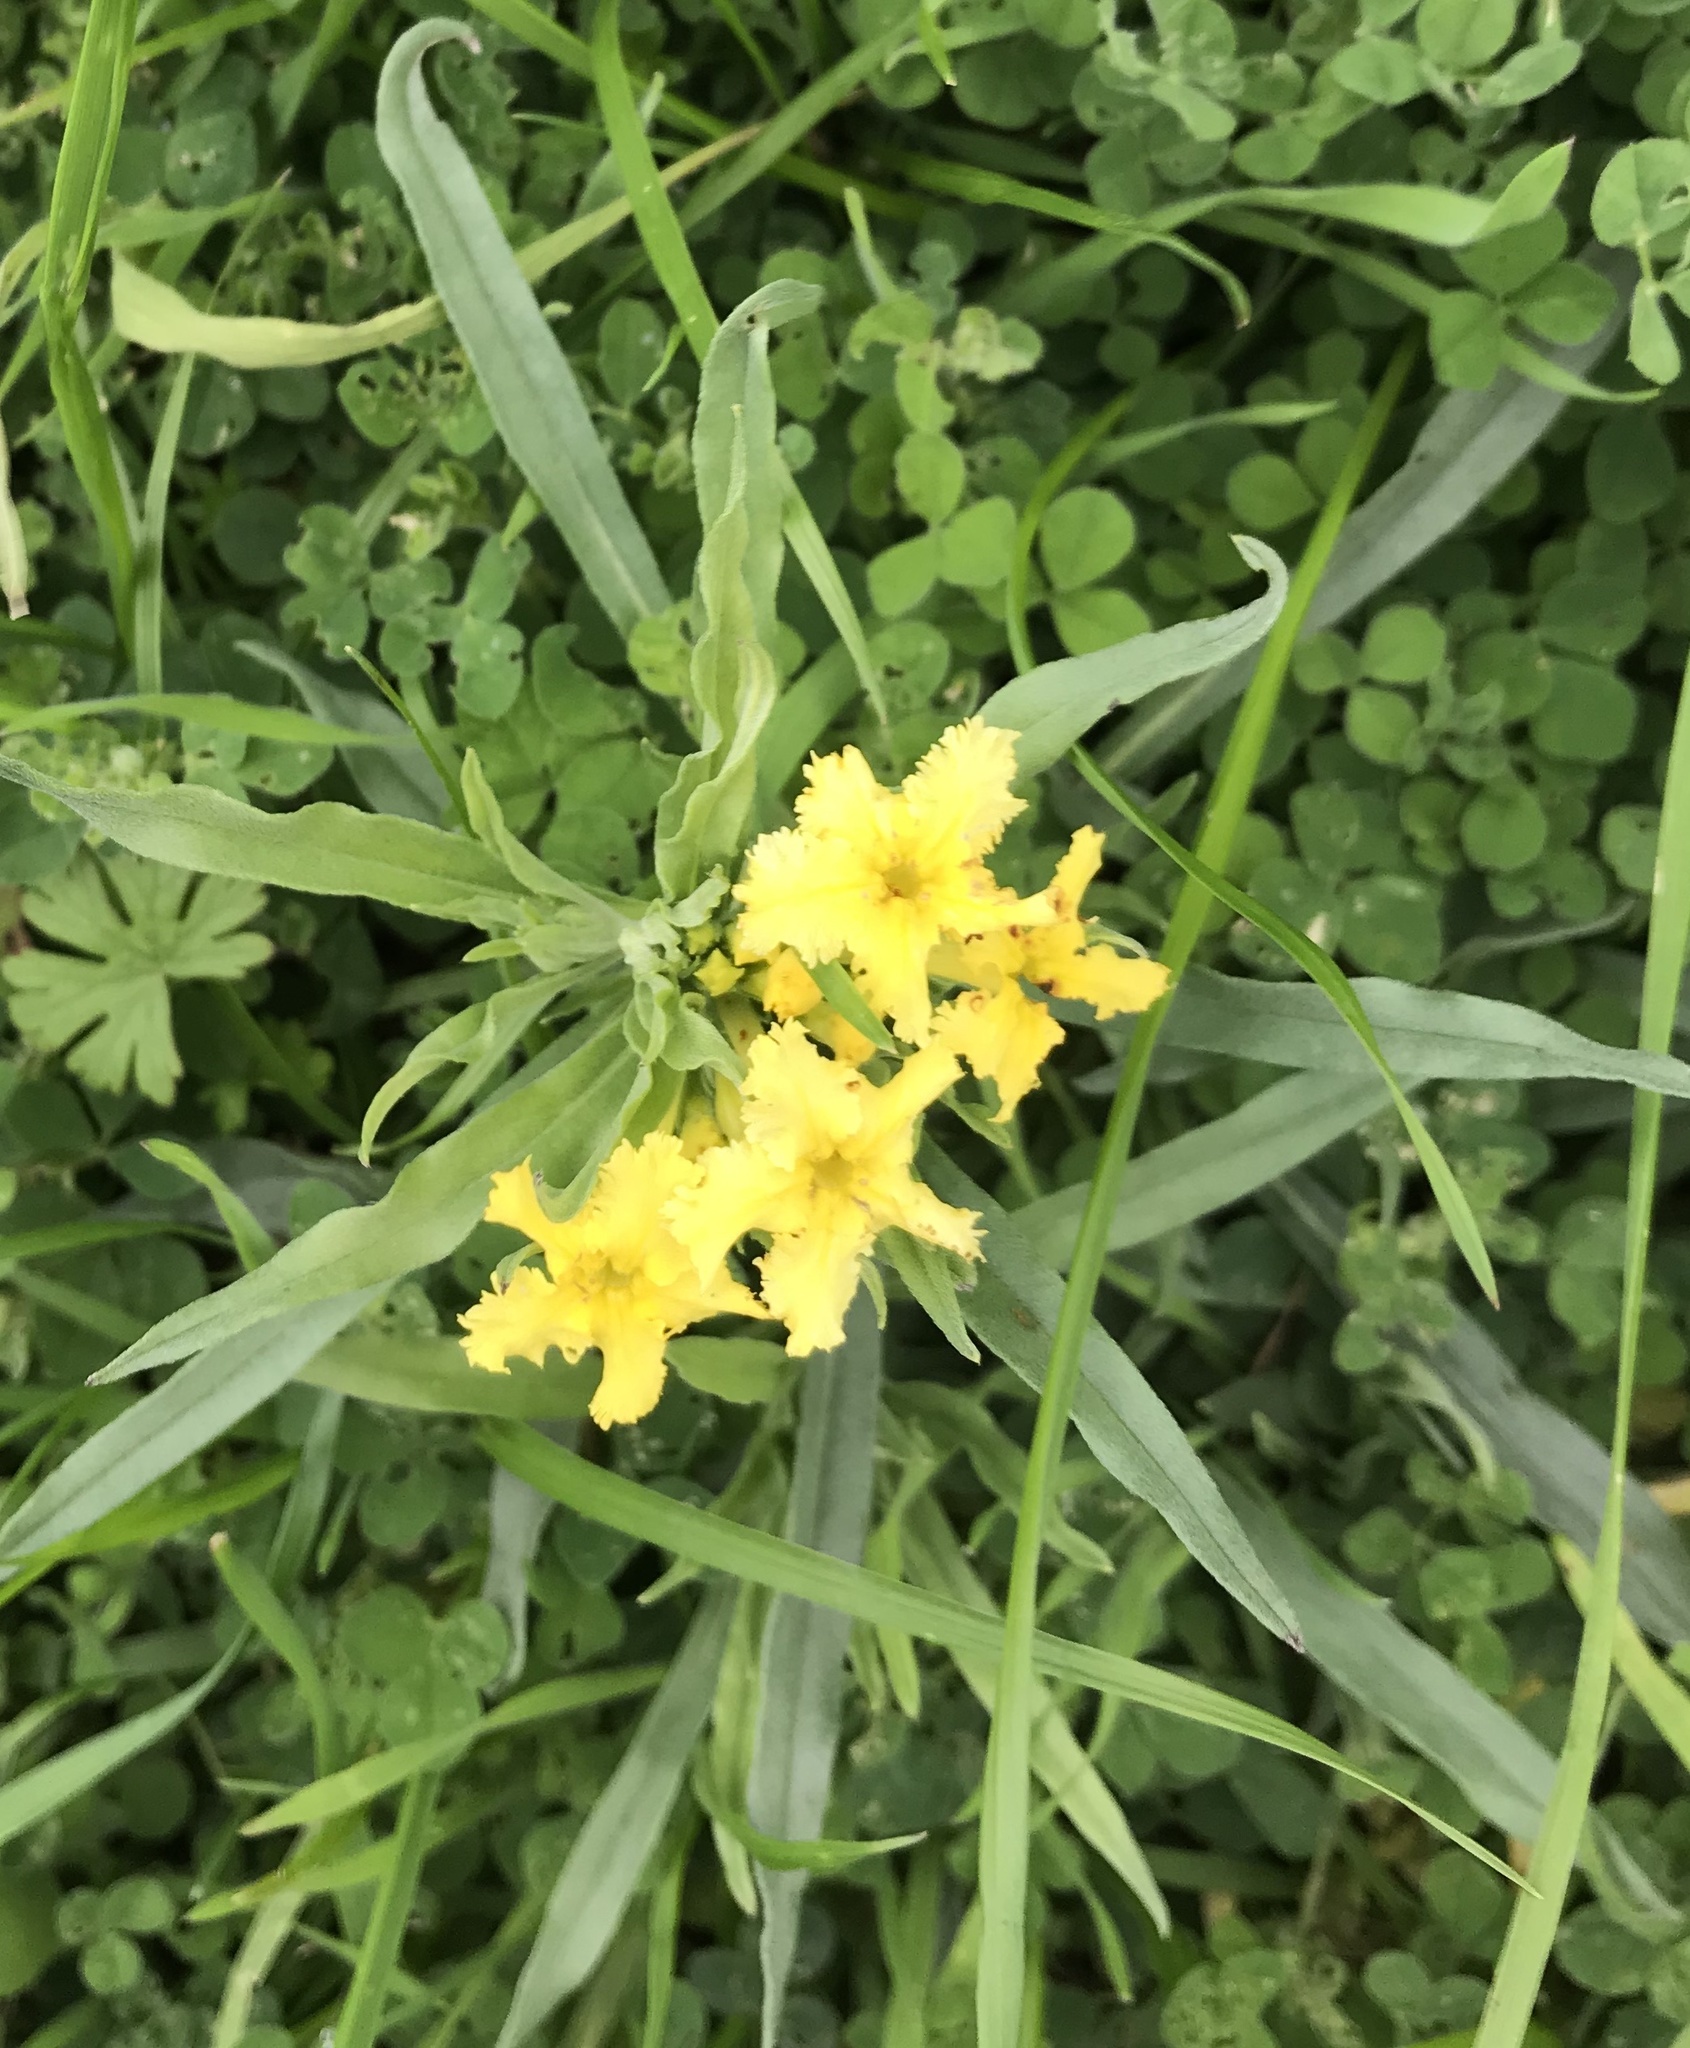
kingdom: Plantae
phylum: Tracheophyta
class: Magnoliopsida
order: Boraginales
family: Boraginaceae
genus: Lithospermum
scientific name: Lithospermum incisum
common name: Fringed gromwell
